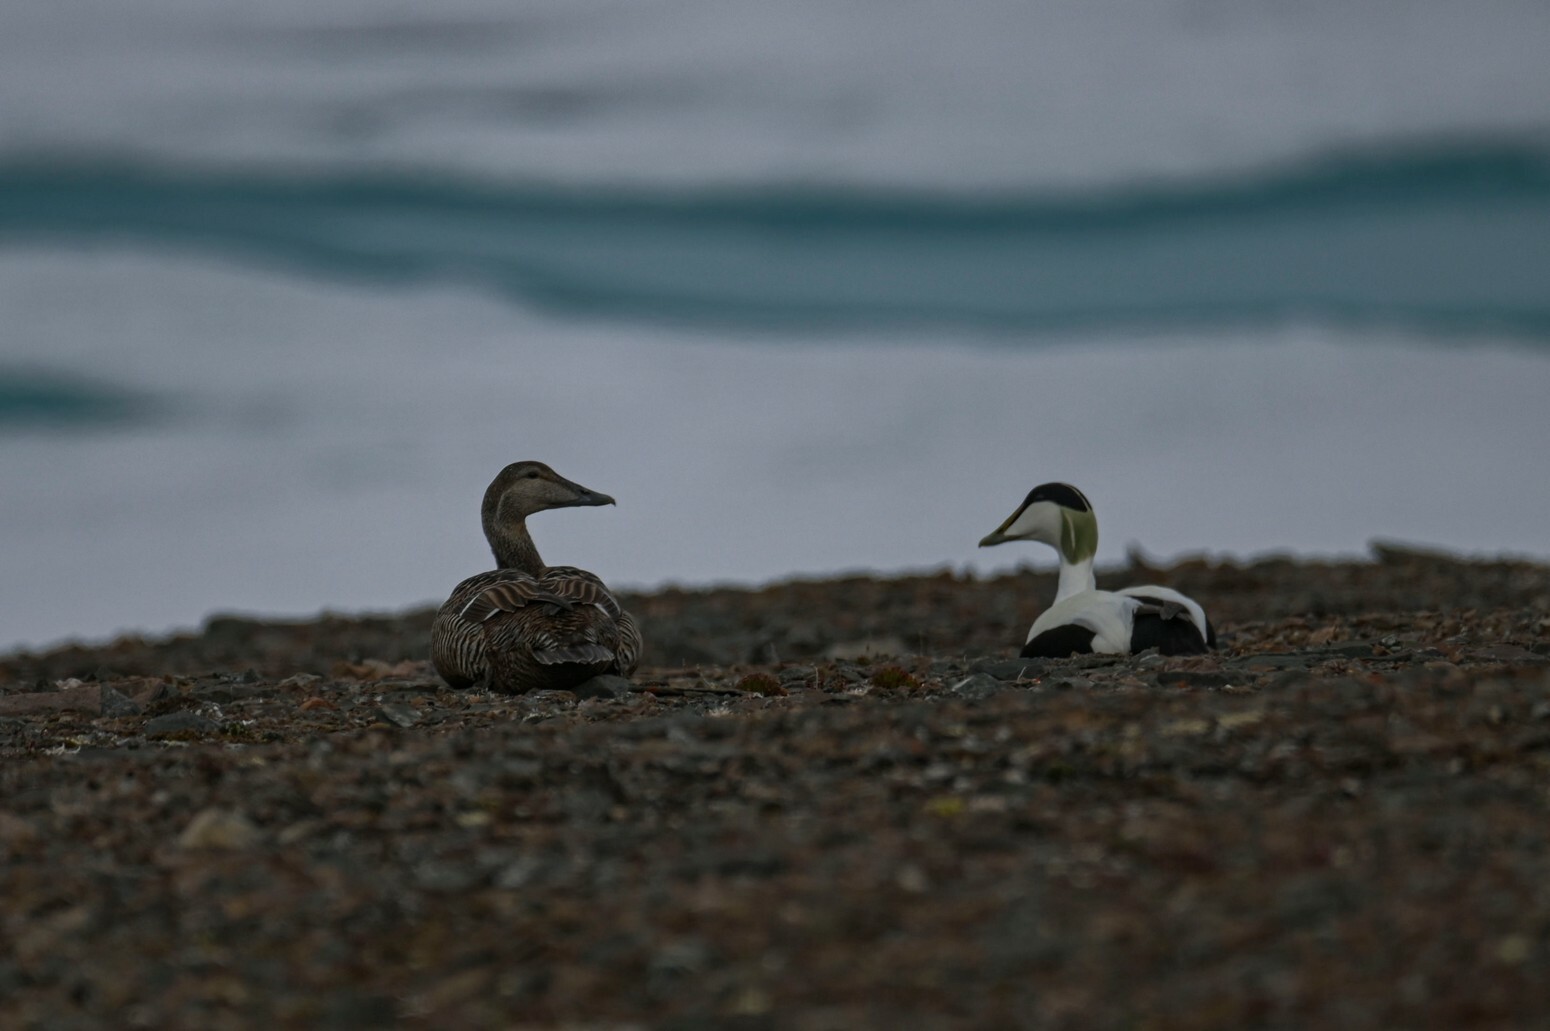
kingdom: Animalia
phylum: Chordata
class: Aves
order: Anseriformes
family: Anatidae
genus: Somateria
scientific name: Somateria mollissima
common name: Common eider
